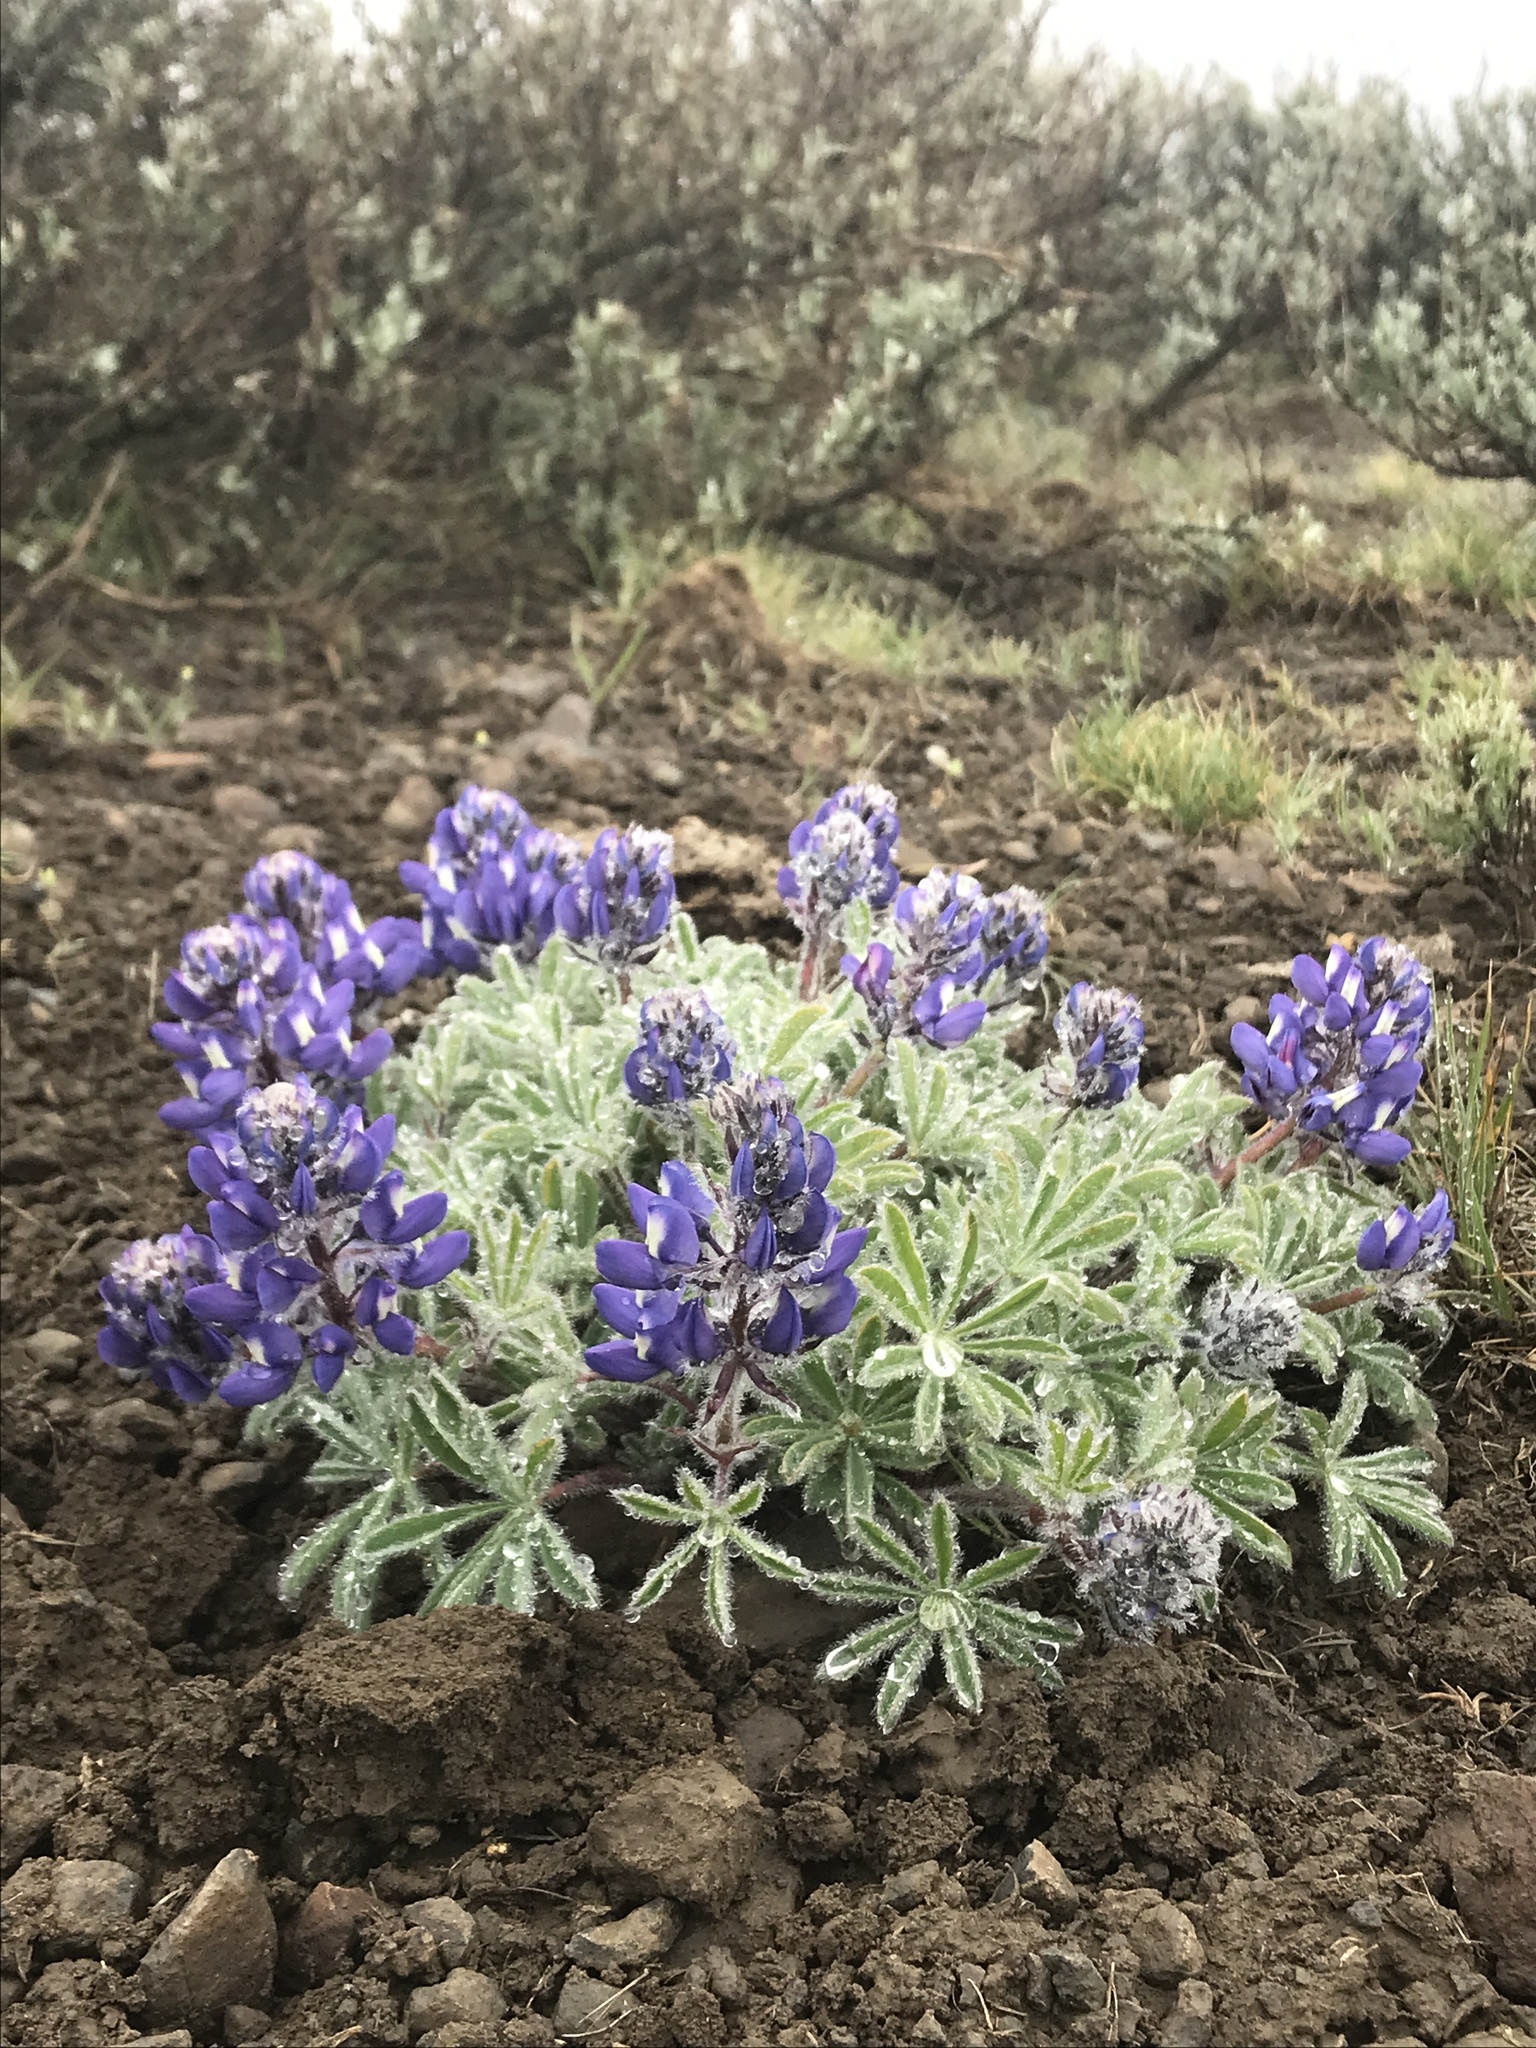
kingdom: Plantae
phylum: Tracheophyta
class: Magnoliopsida
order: Fabales
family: Fabaceae
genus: Lupinus
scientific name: Lupinus saxosus
